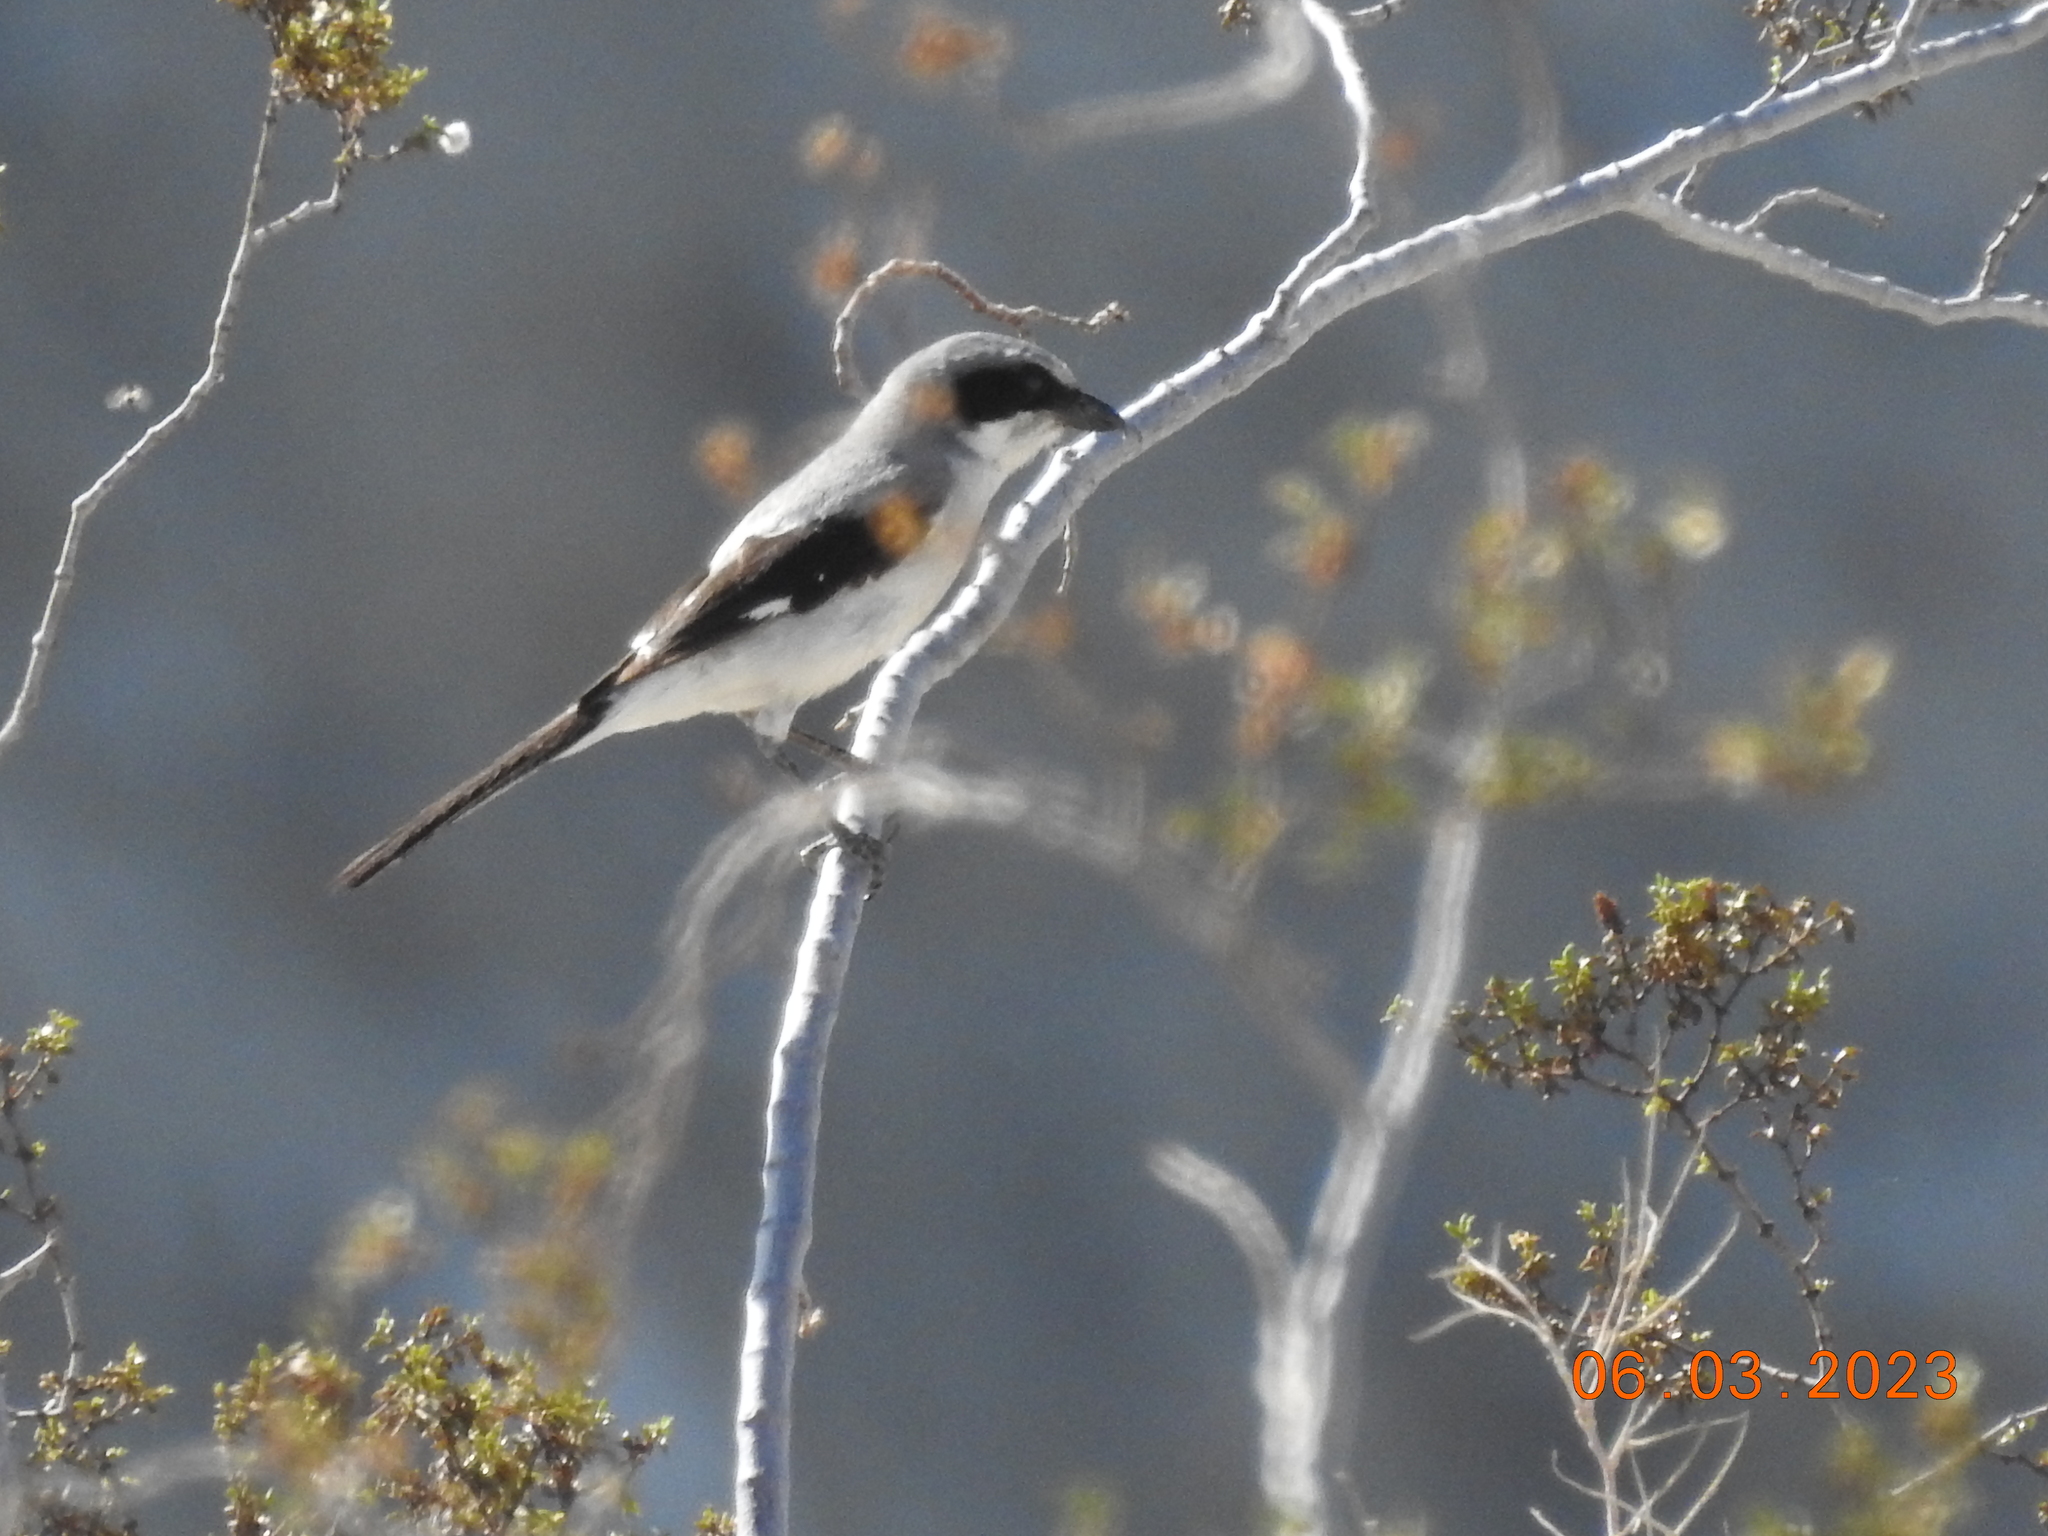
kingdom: Animalia
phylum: Chordata
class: Aves
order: Passeriformes
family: Laniidae
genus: Lanius
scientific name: Lanius ludovicianus
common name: Loggerhead shrike
